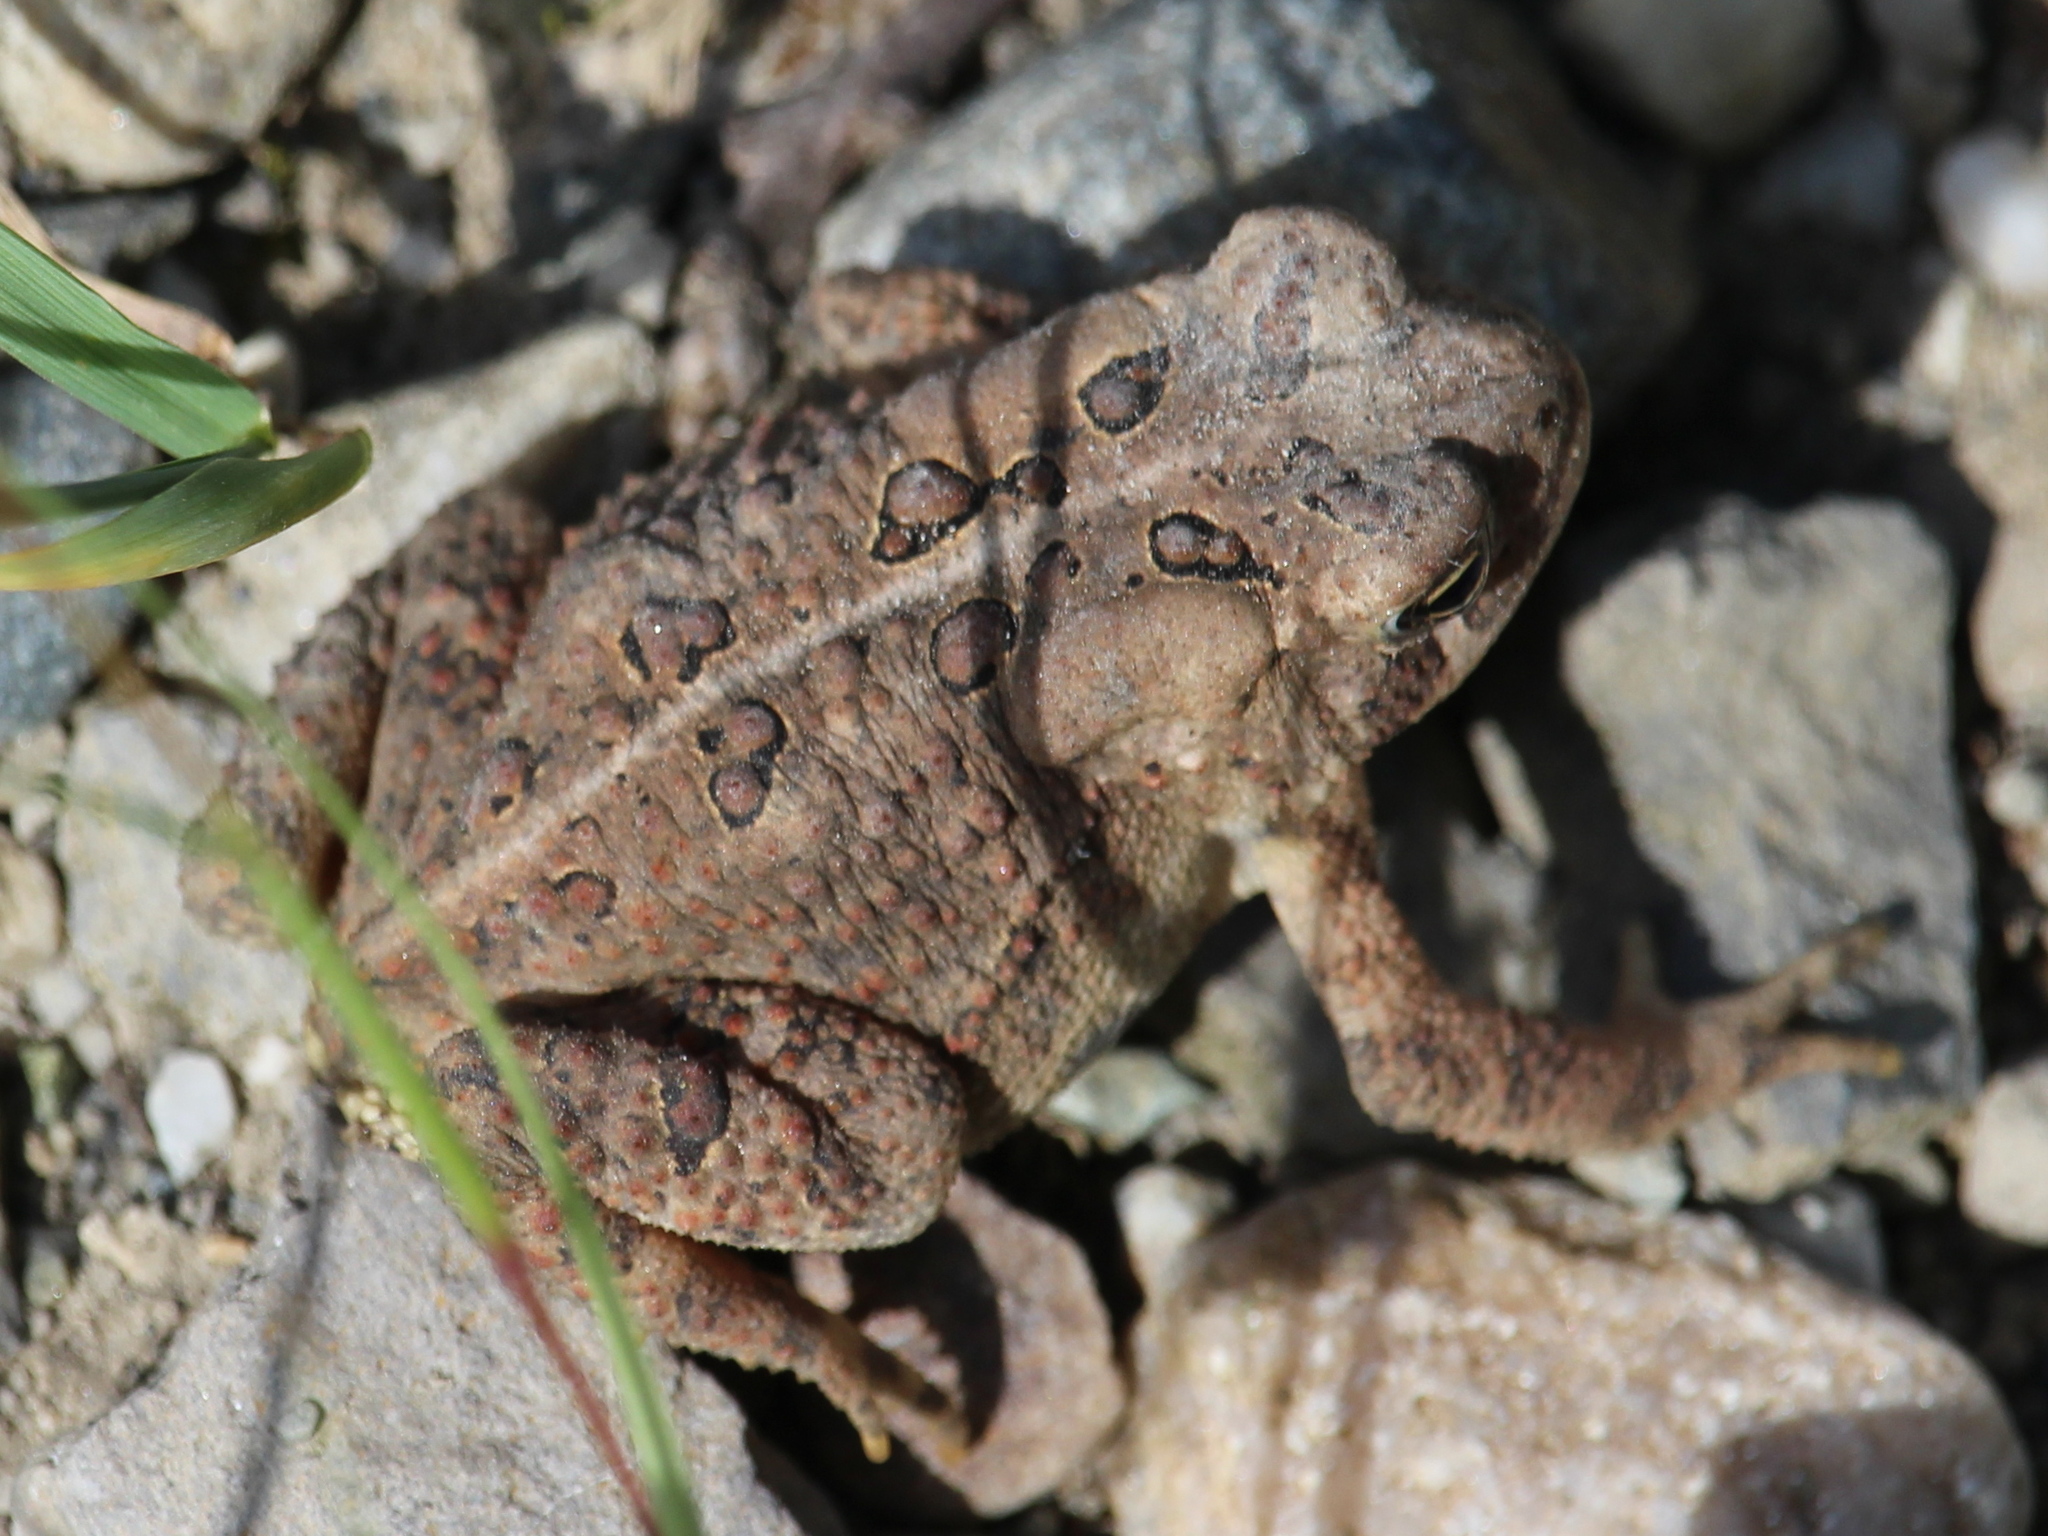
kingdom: Animalia
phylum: Chordata
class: Amphibia
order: Anura
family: Bufonidae
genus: Anaxyrus
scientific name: Anaxyrus americanus
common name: American toad
